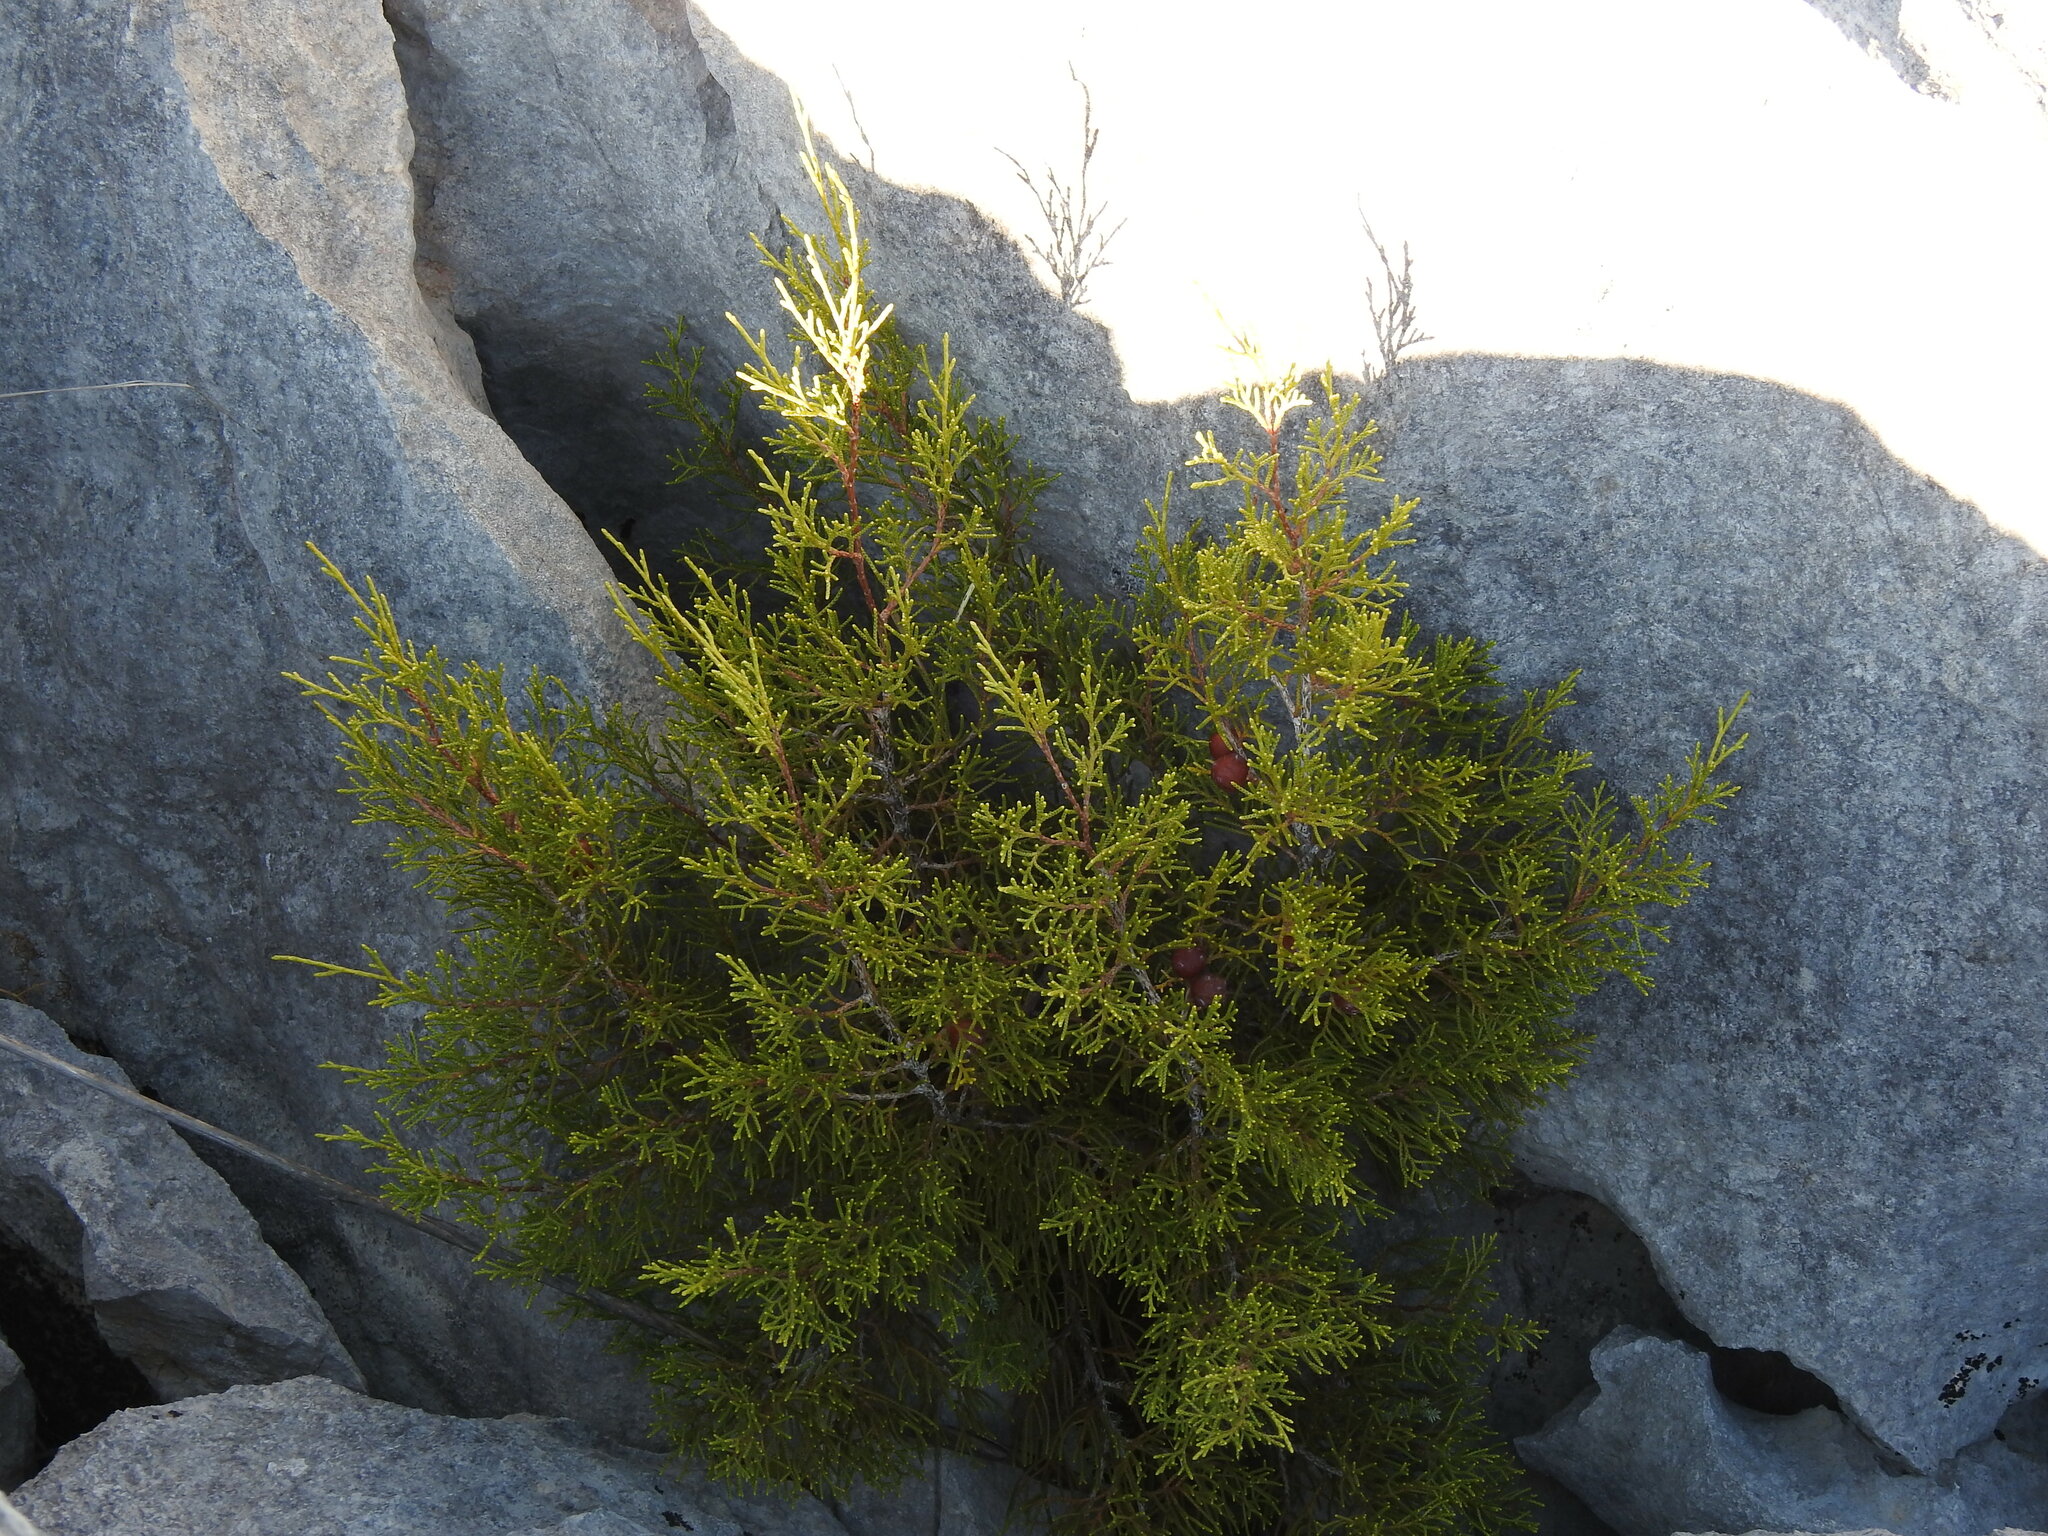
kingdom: Plantae
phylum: Tracheophyta
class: Pinopsida
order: Pinales
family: Cupressaceae
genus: Juniperus
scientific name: Juniperus phoenicea
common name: Phoenician juniper
